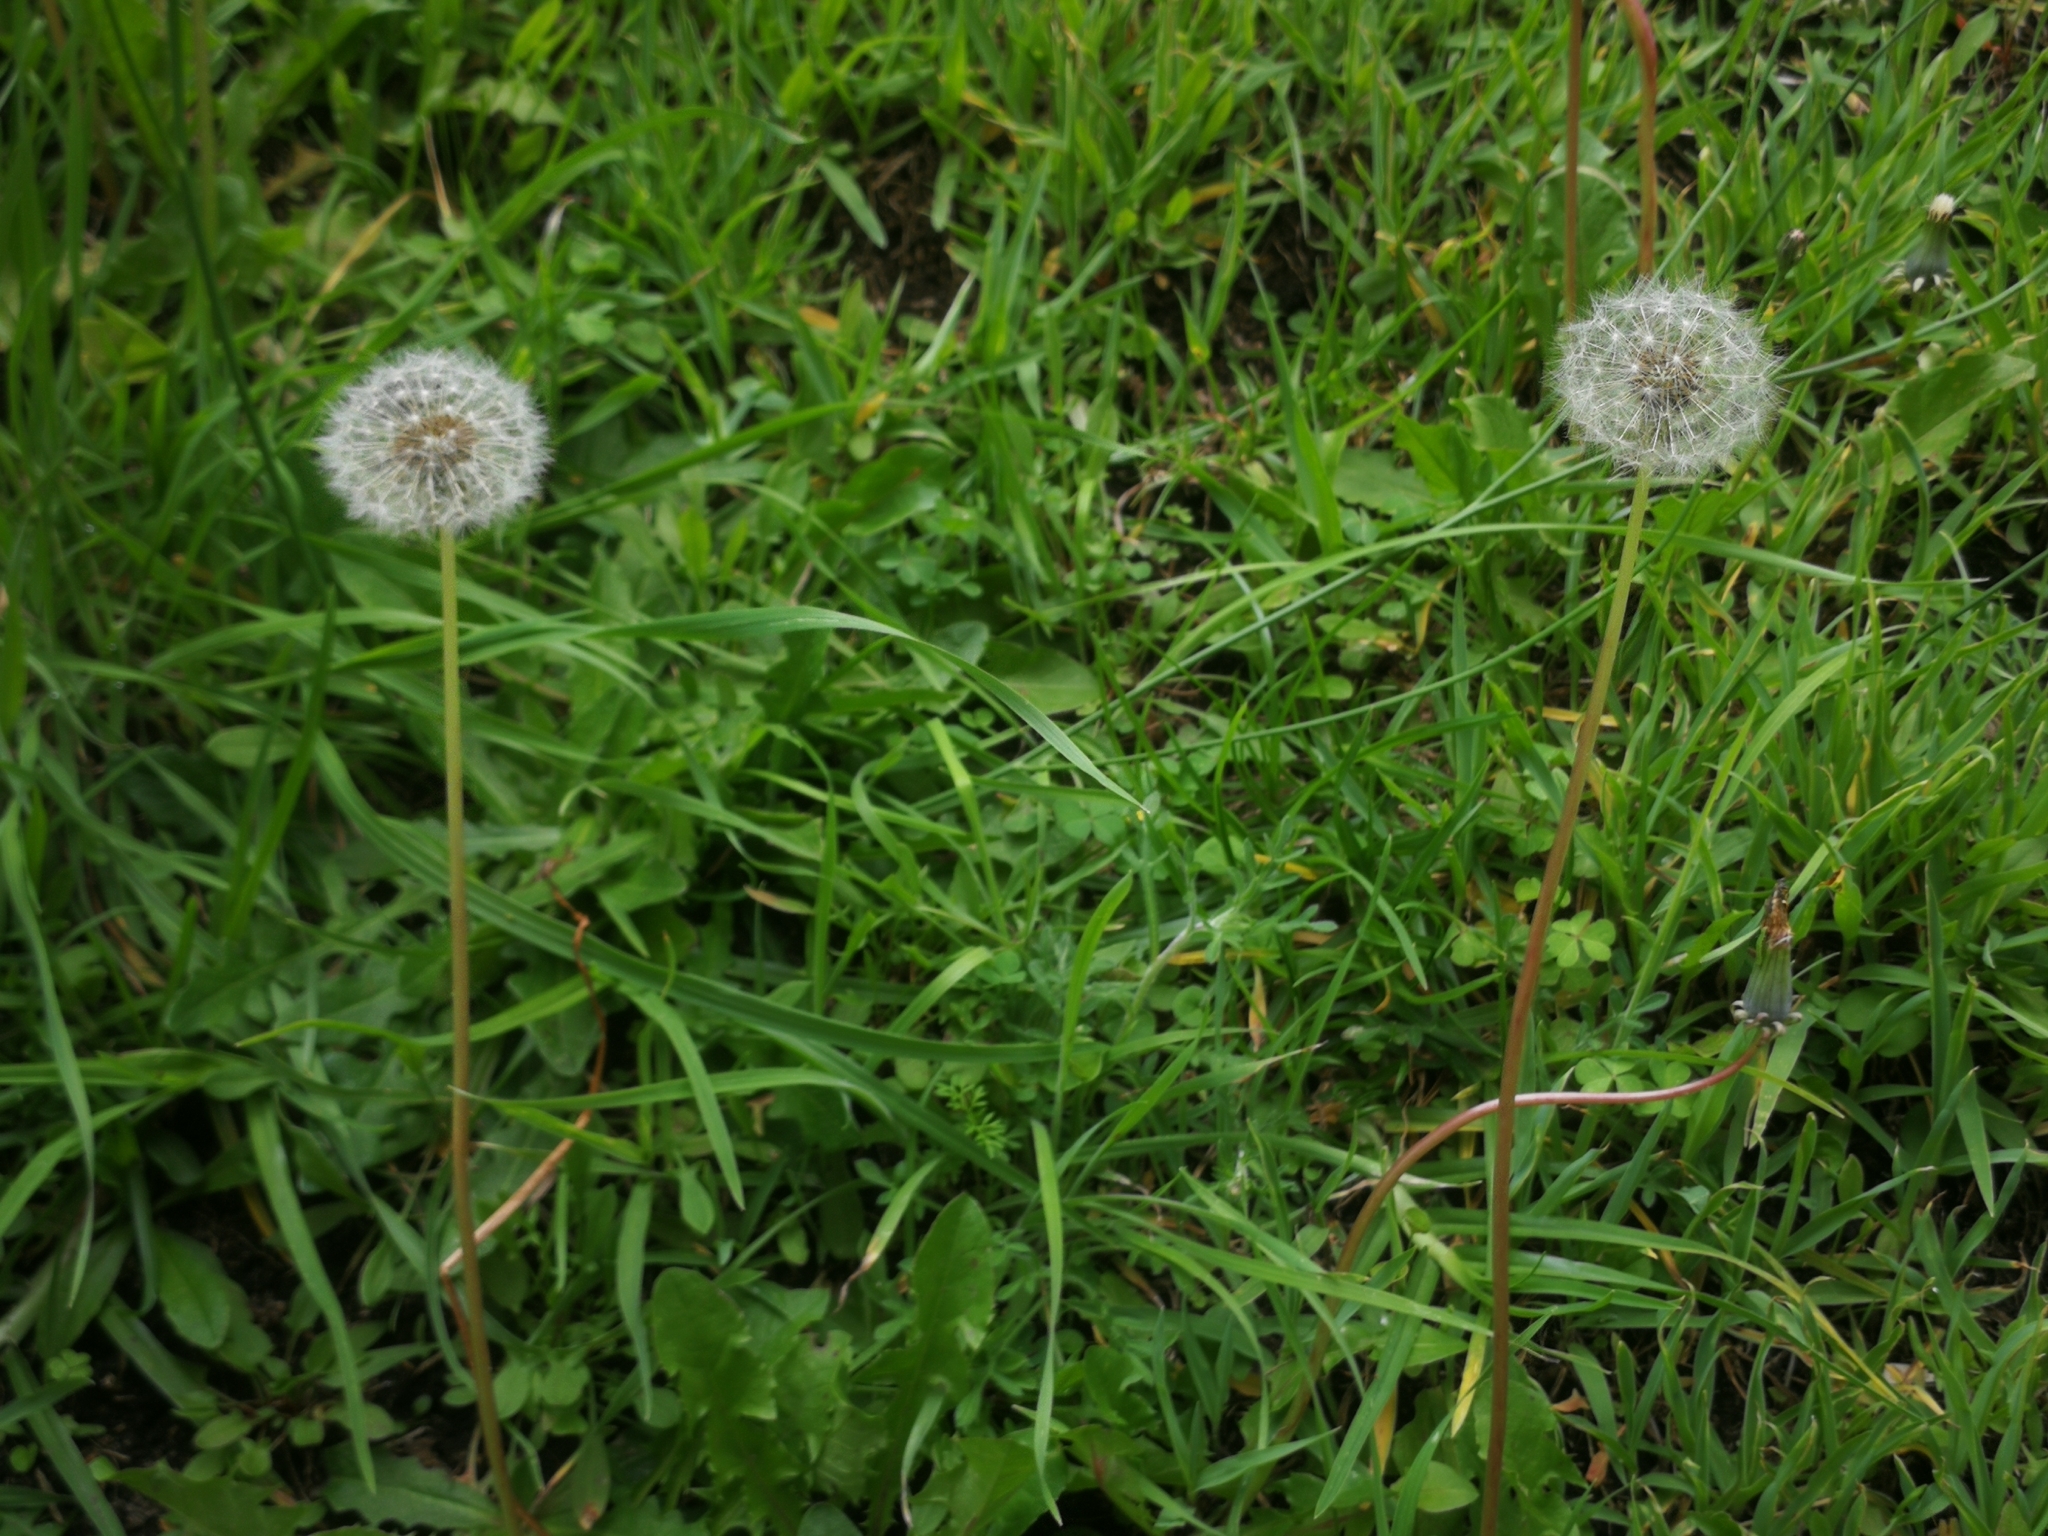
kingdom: Plantae
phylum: Tracheophyta
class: Magnoliopsida
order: Asterales
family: Asteraceae
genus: Taraxacum
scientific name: Taraxacum officinale
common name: Common dandelion
